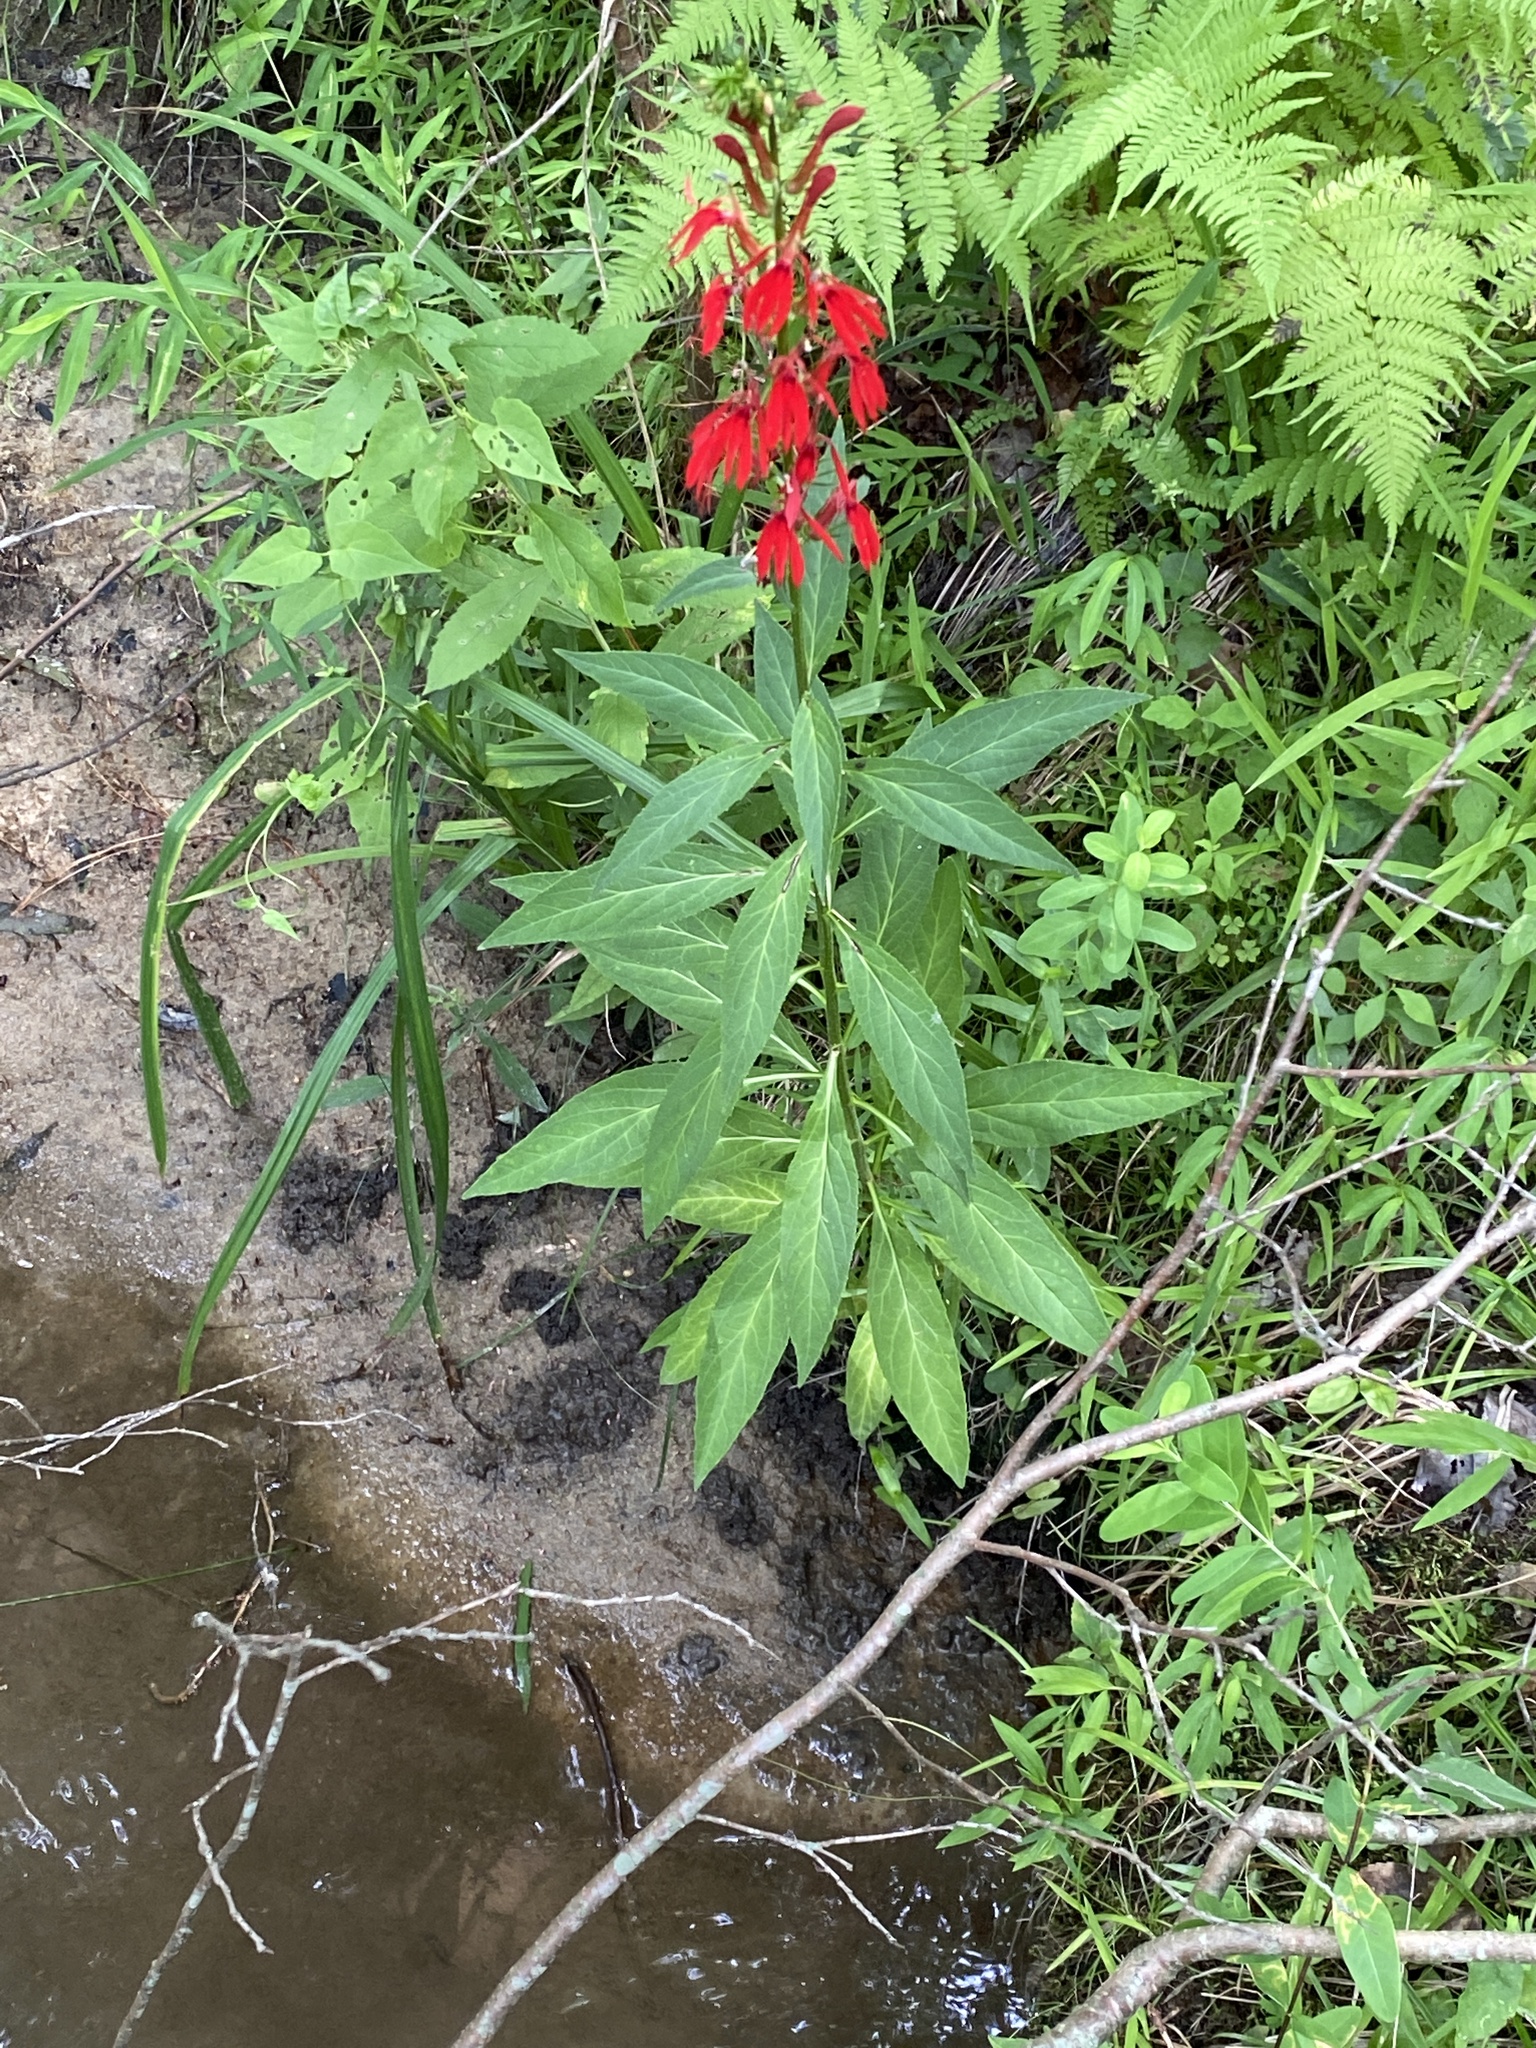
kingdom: Plantae
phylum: Tracheophyta
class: Magnoliopsida
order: Asterales
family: Campanulaceae
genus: Lobelia
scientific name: Lobelia cardinalis
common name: Cardinal flower
